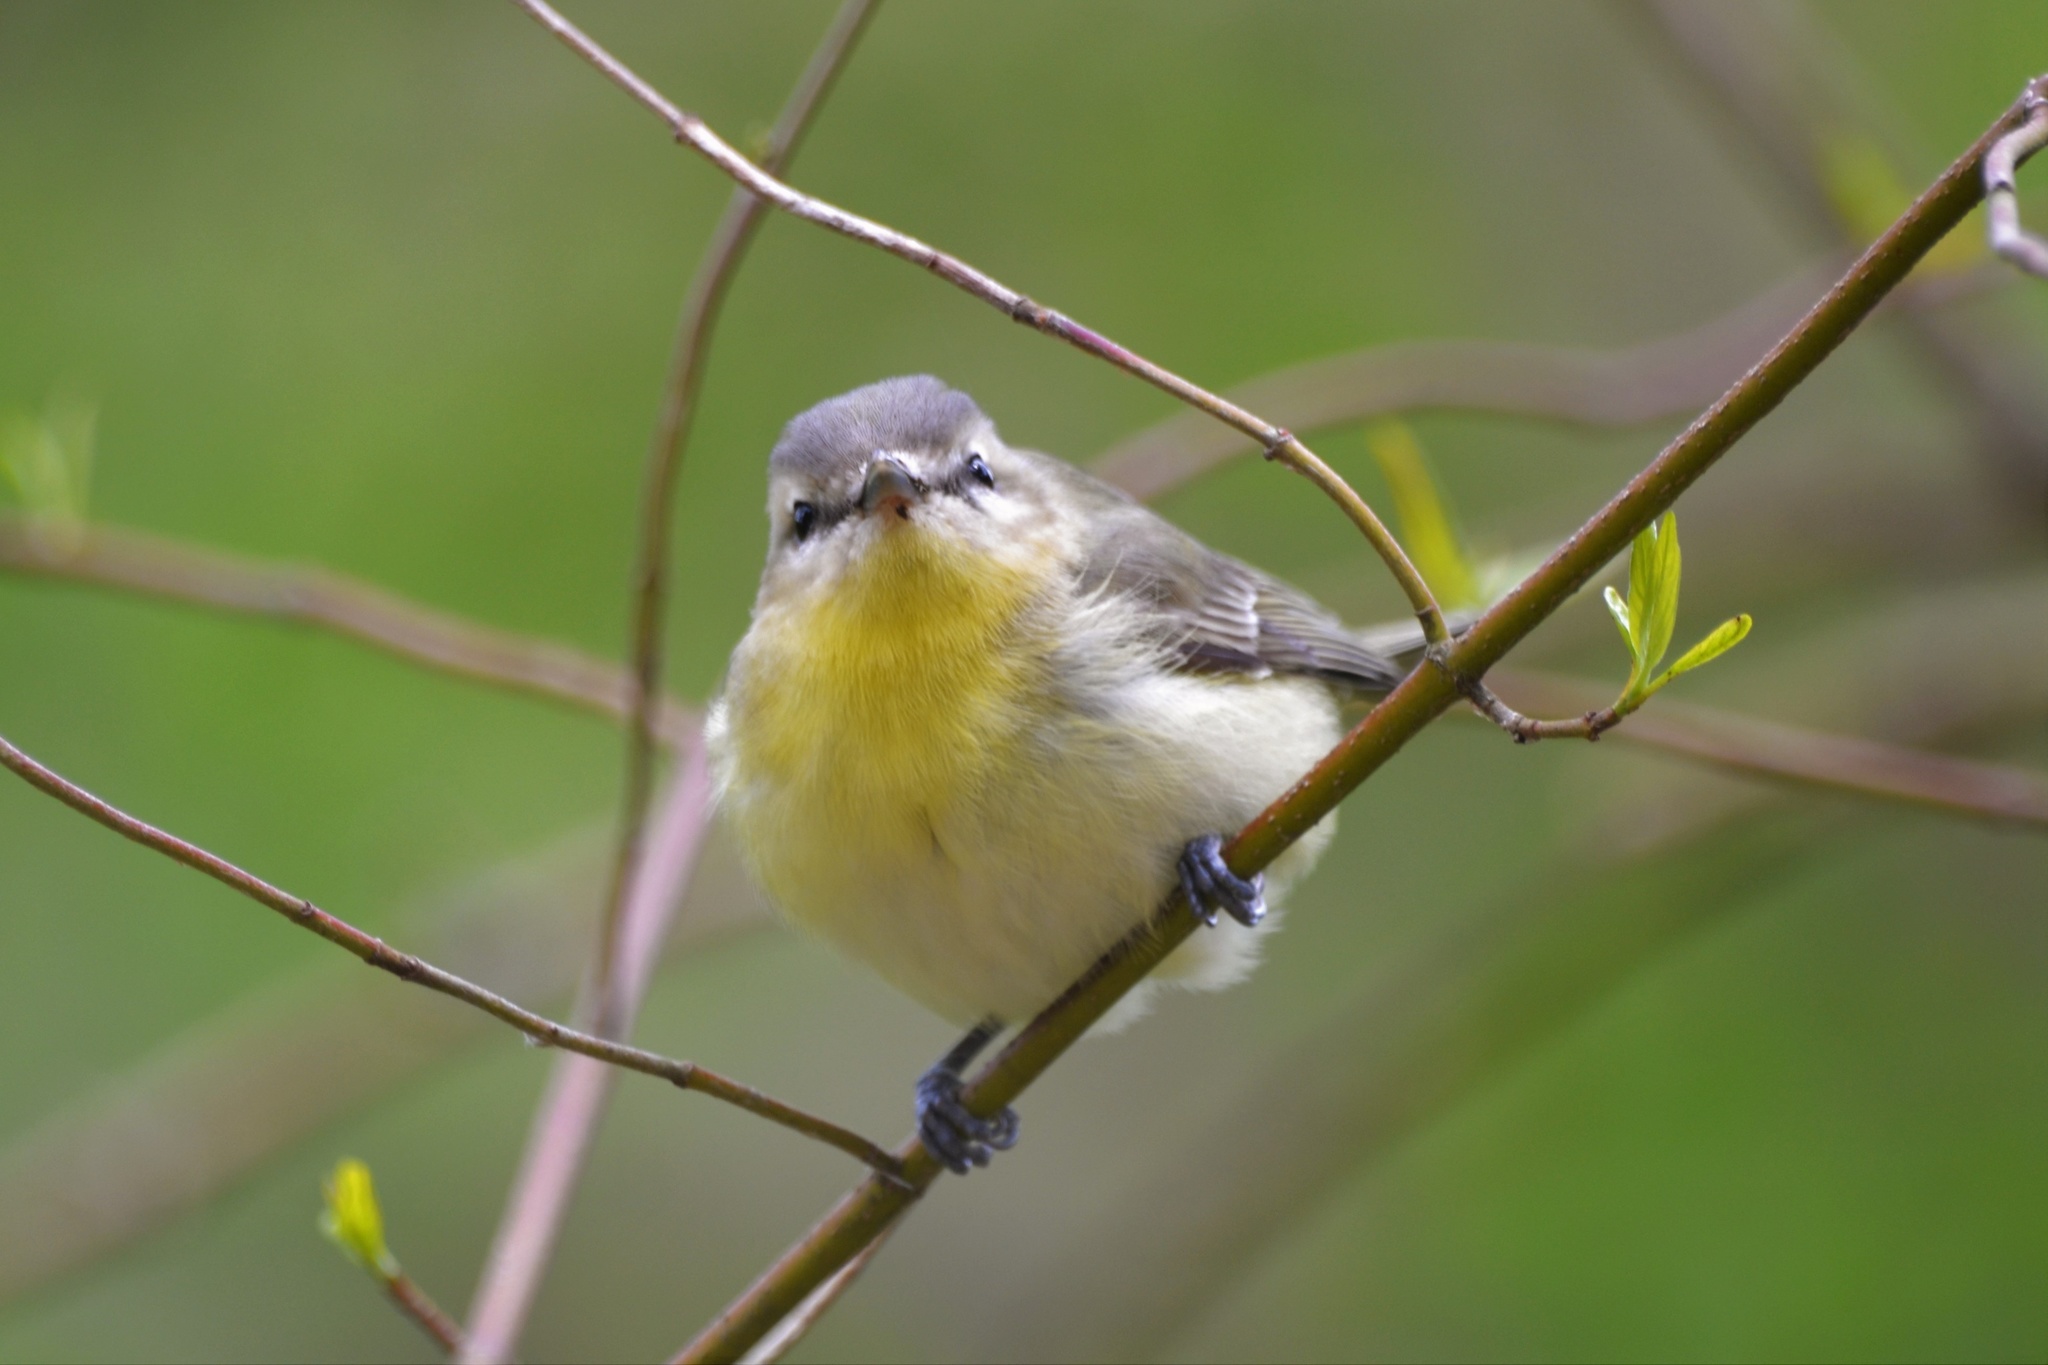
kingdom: Animalia
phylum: Chordata
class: Aves
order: Passeriformes
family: Vireonidae
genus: Vireo
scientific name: Vireo philadelphicus
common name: Philadelphia vireo
